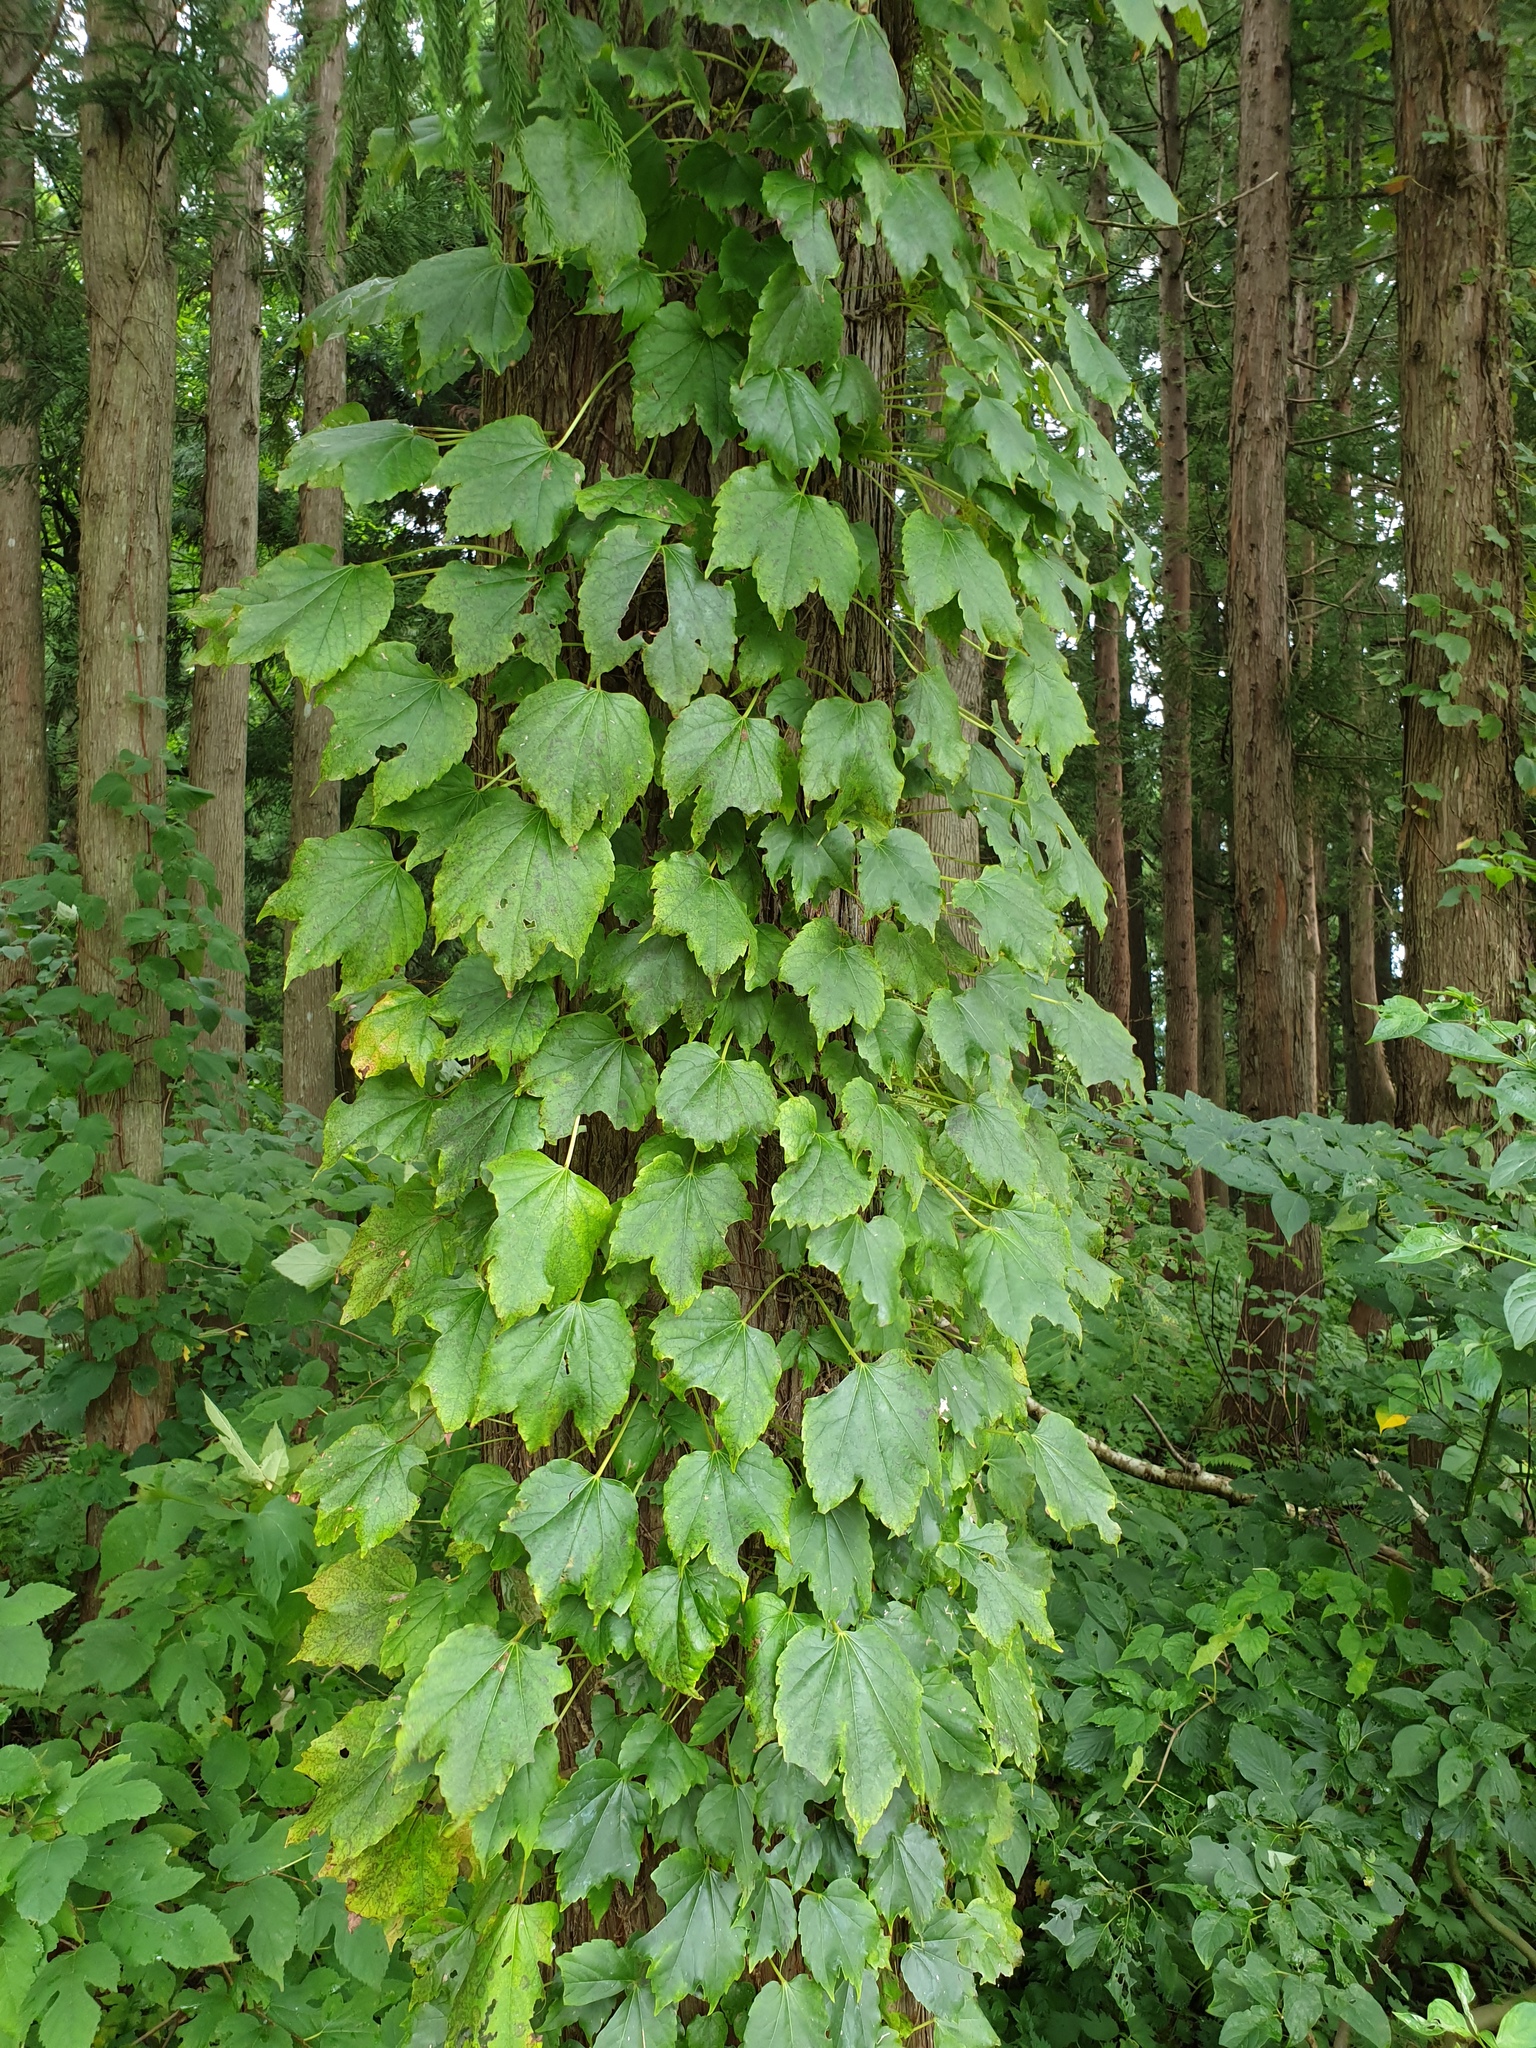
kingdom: Plantae
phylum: Tracheophyta
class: Magnoliopsida
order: Vitales
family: Vitaceae
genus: Parthenocissus
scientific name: Parthenocissus tricuspidata
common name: Boston ivy
